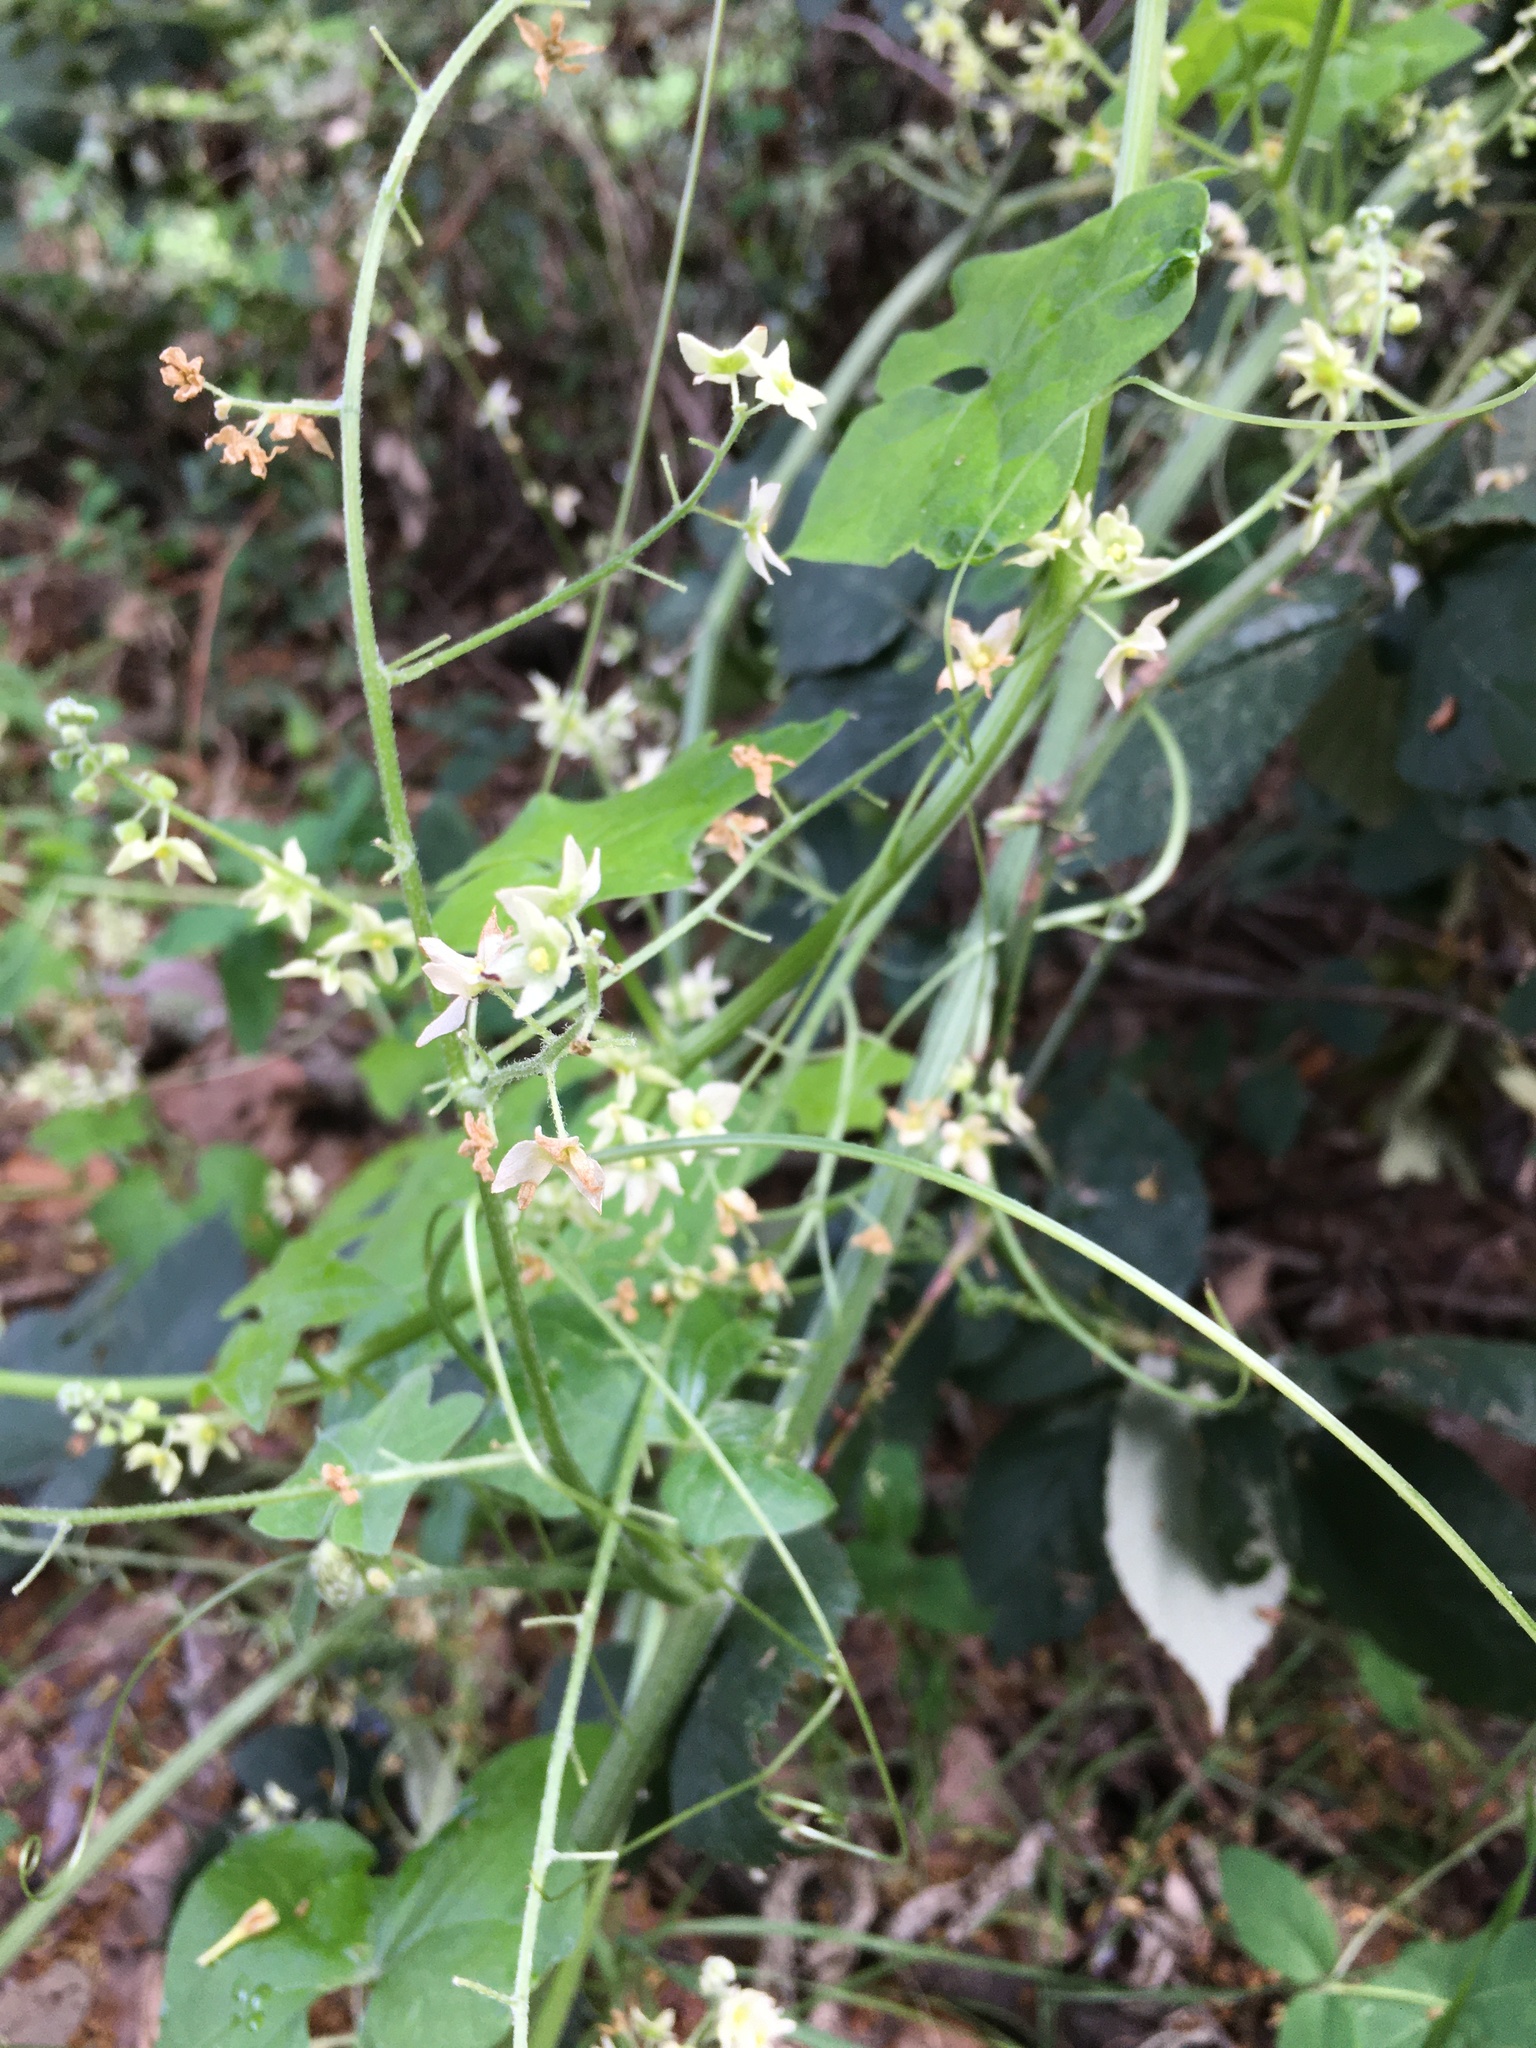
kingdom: Plantae
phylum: Tracheophyta
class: Magnoliopsida
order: Cucurbitales
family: Cucurbitaceae
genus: Marah
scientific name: Marah fabacea
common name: California manroot
